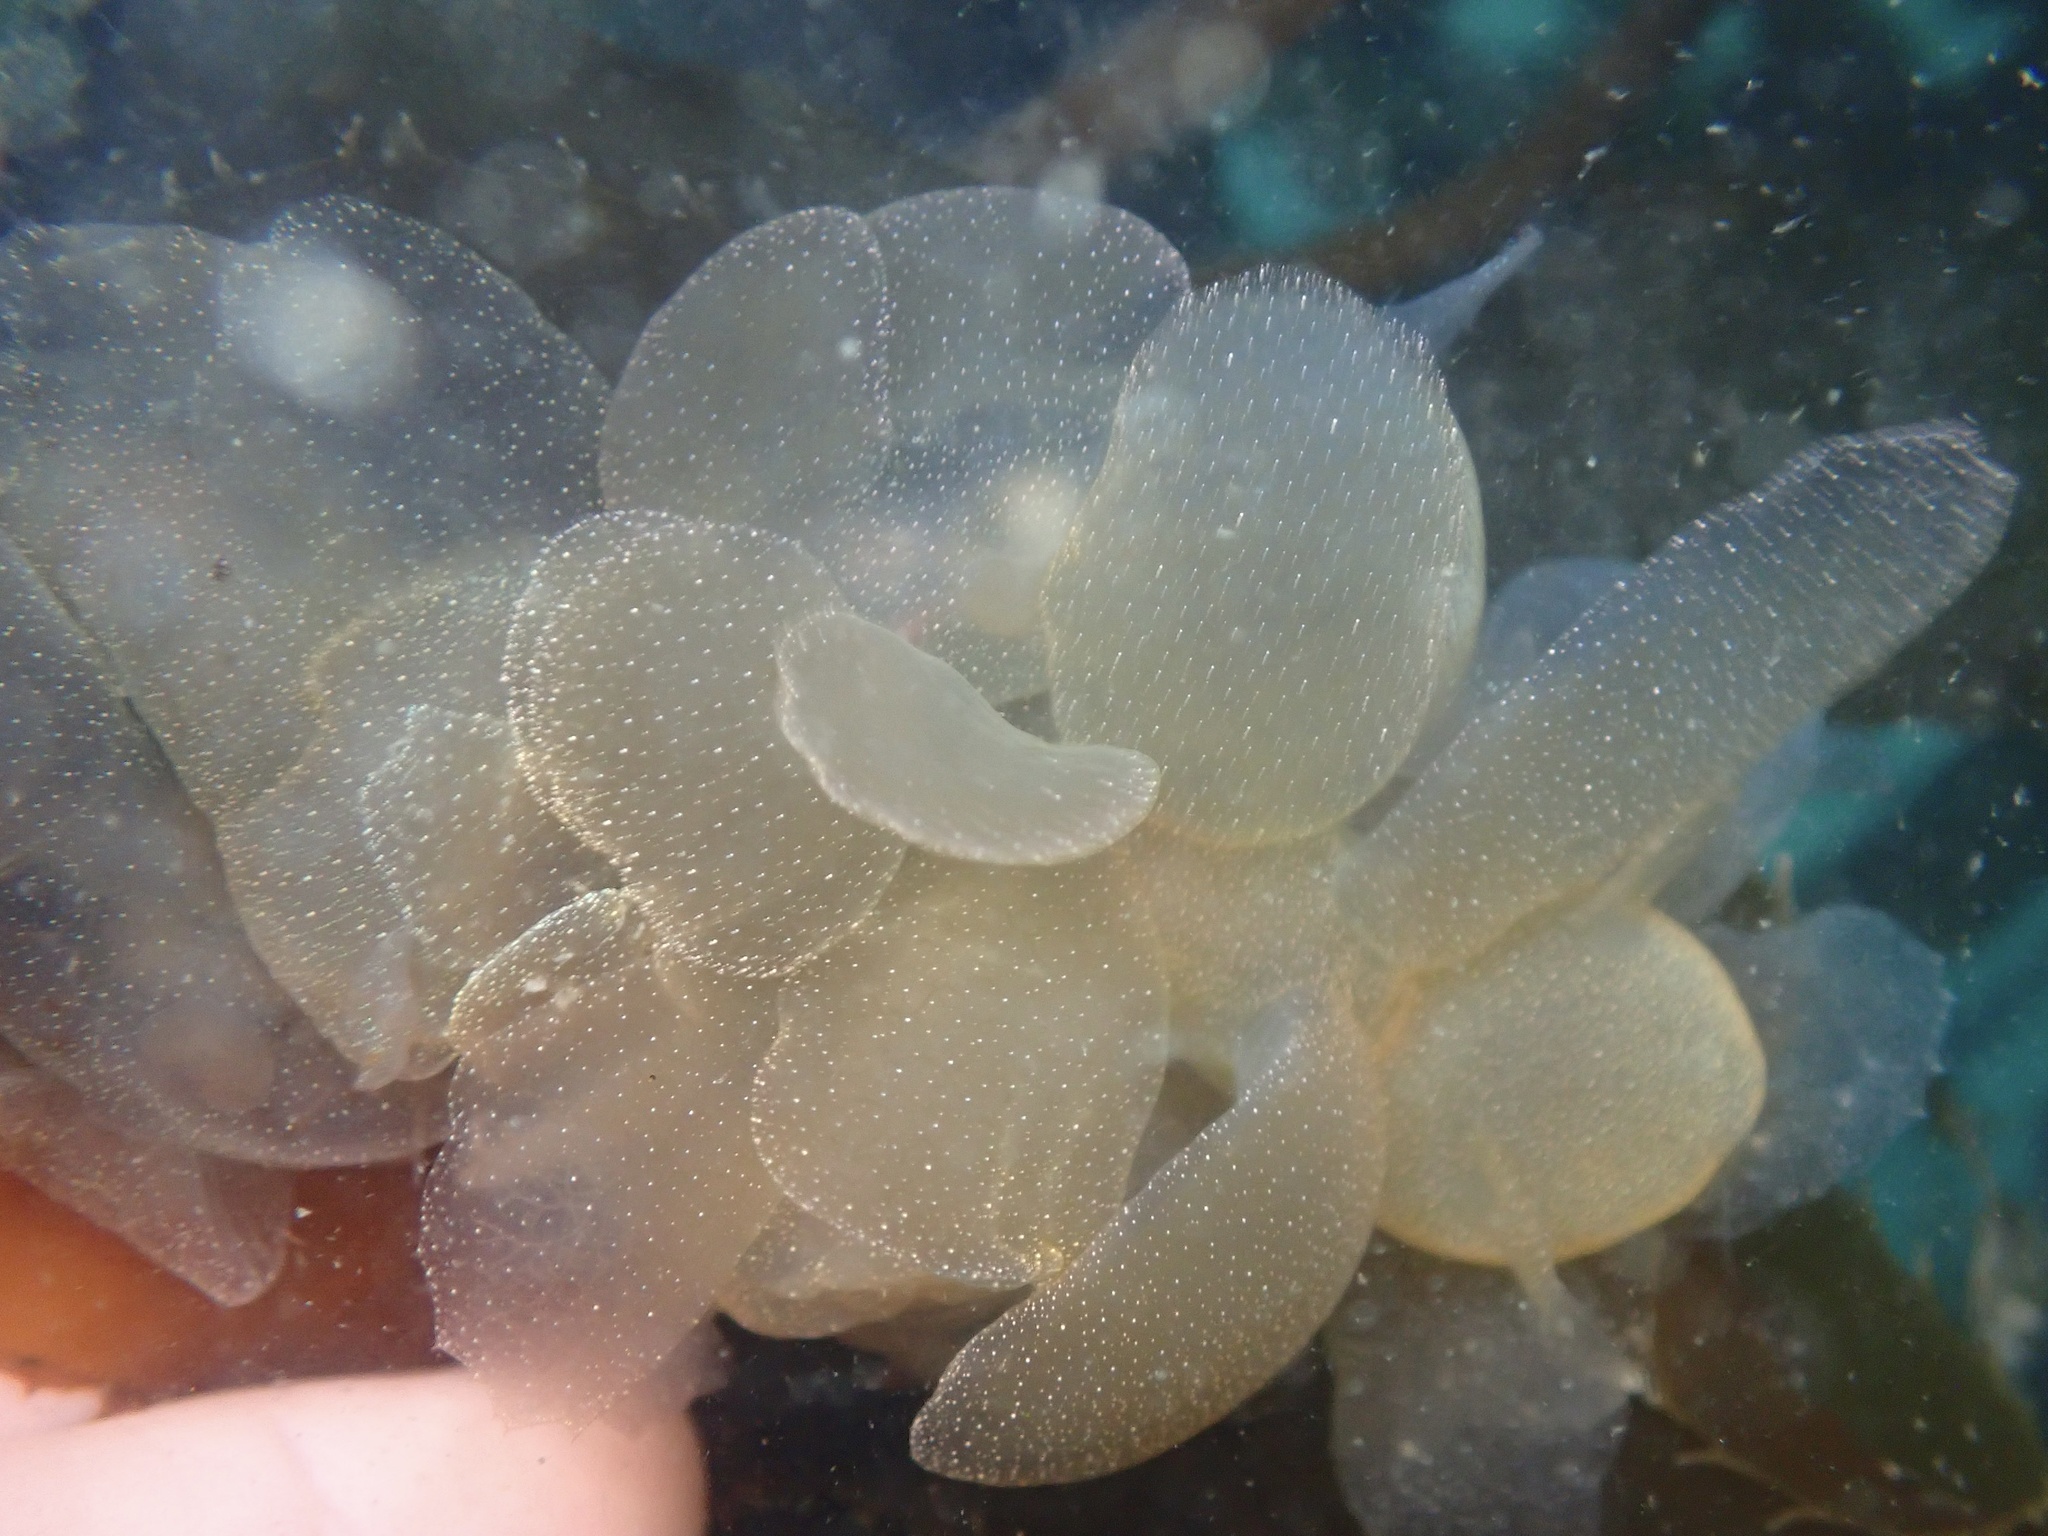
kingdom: Animalia
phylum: Mollusca
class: Gastropoda
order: Nudibranchia
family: Tethydidae
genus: Melibe
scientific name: Melibe leonina
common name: Lion nudibranch
